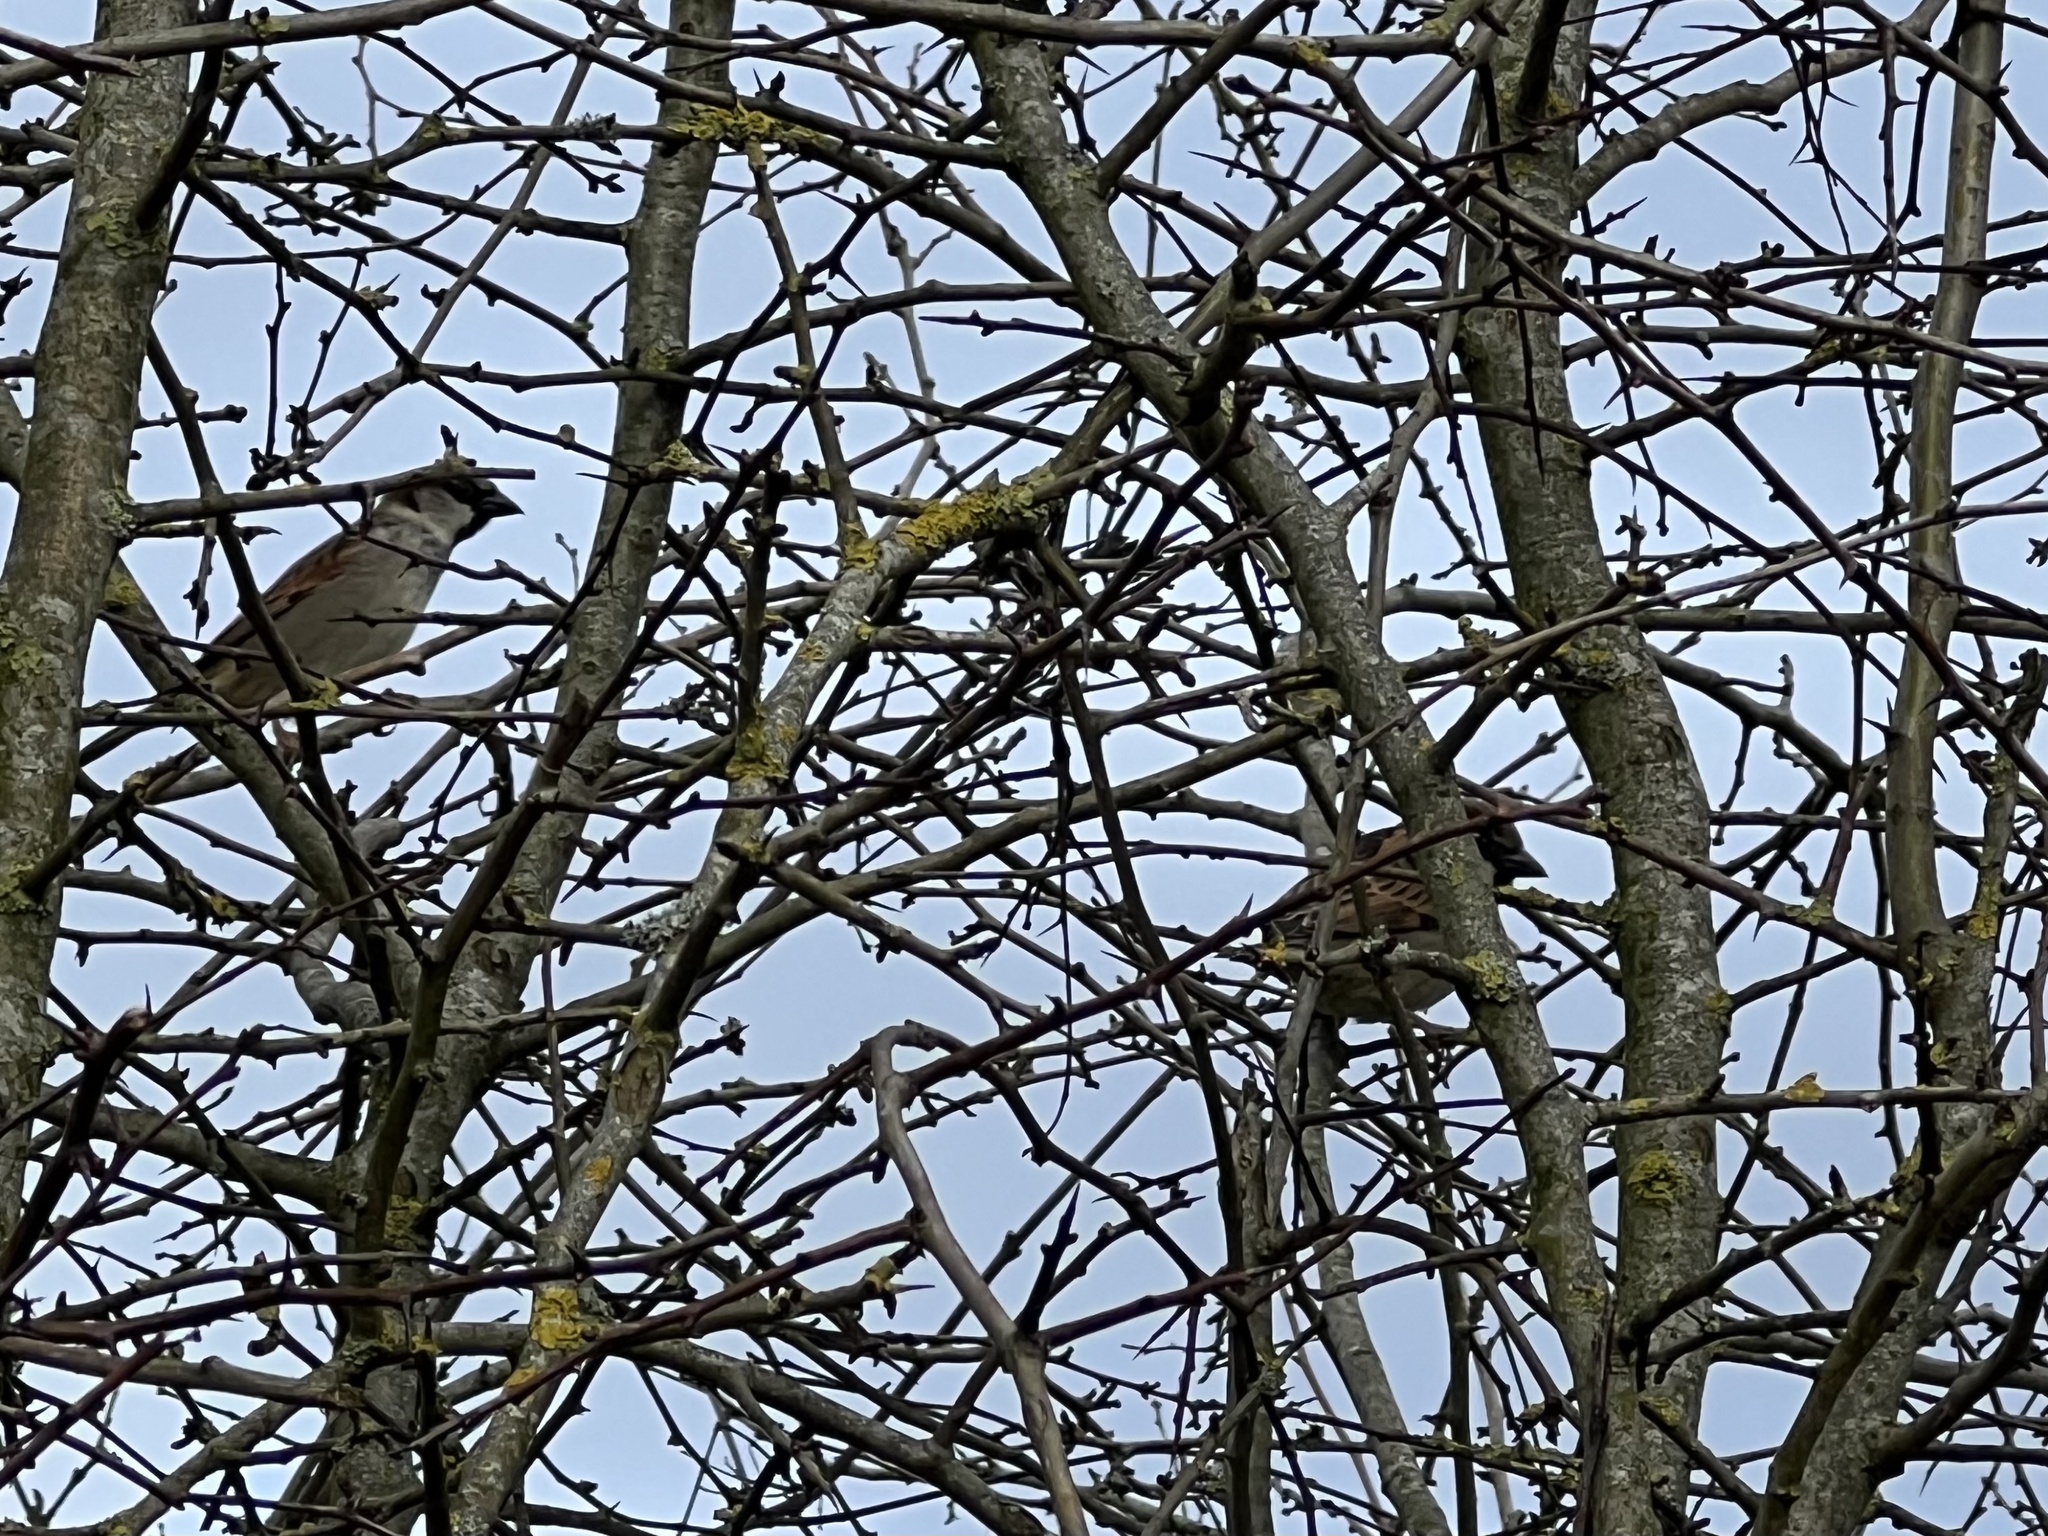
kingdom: Animalia
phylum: Chordata
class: Aves
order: Passeriformes
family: Passeridae
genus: Passer
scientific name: Passer domesticus
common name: House sparrow
